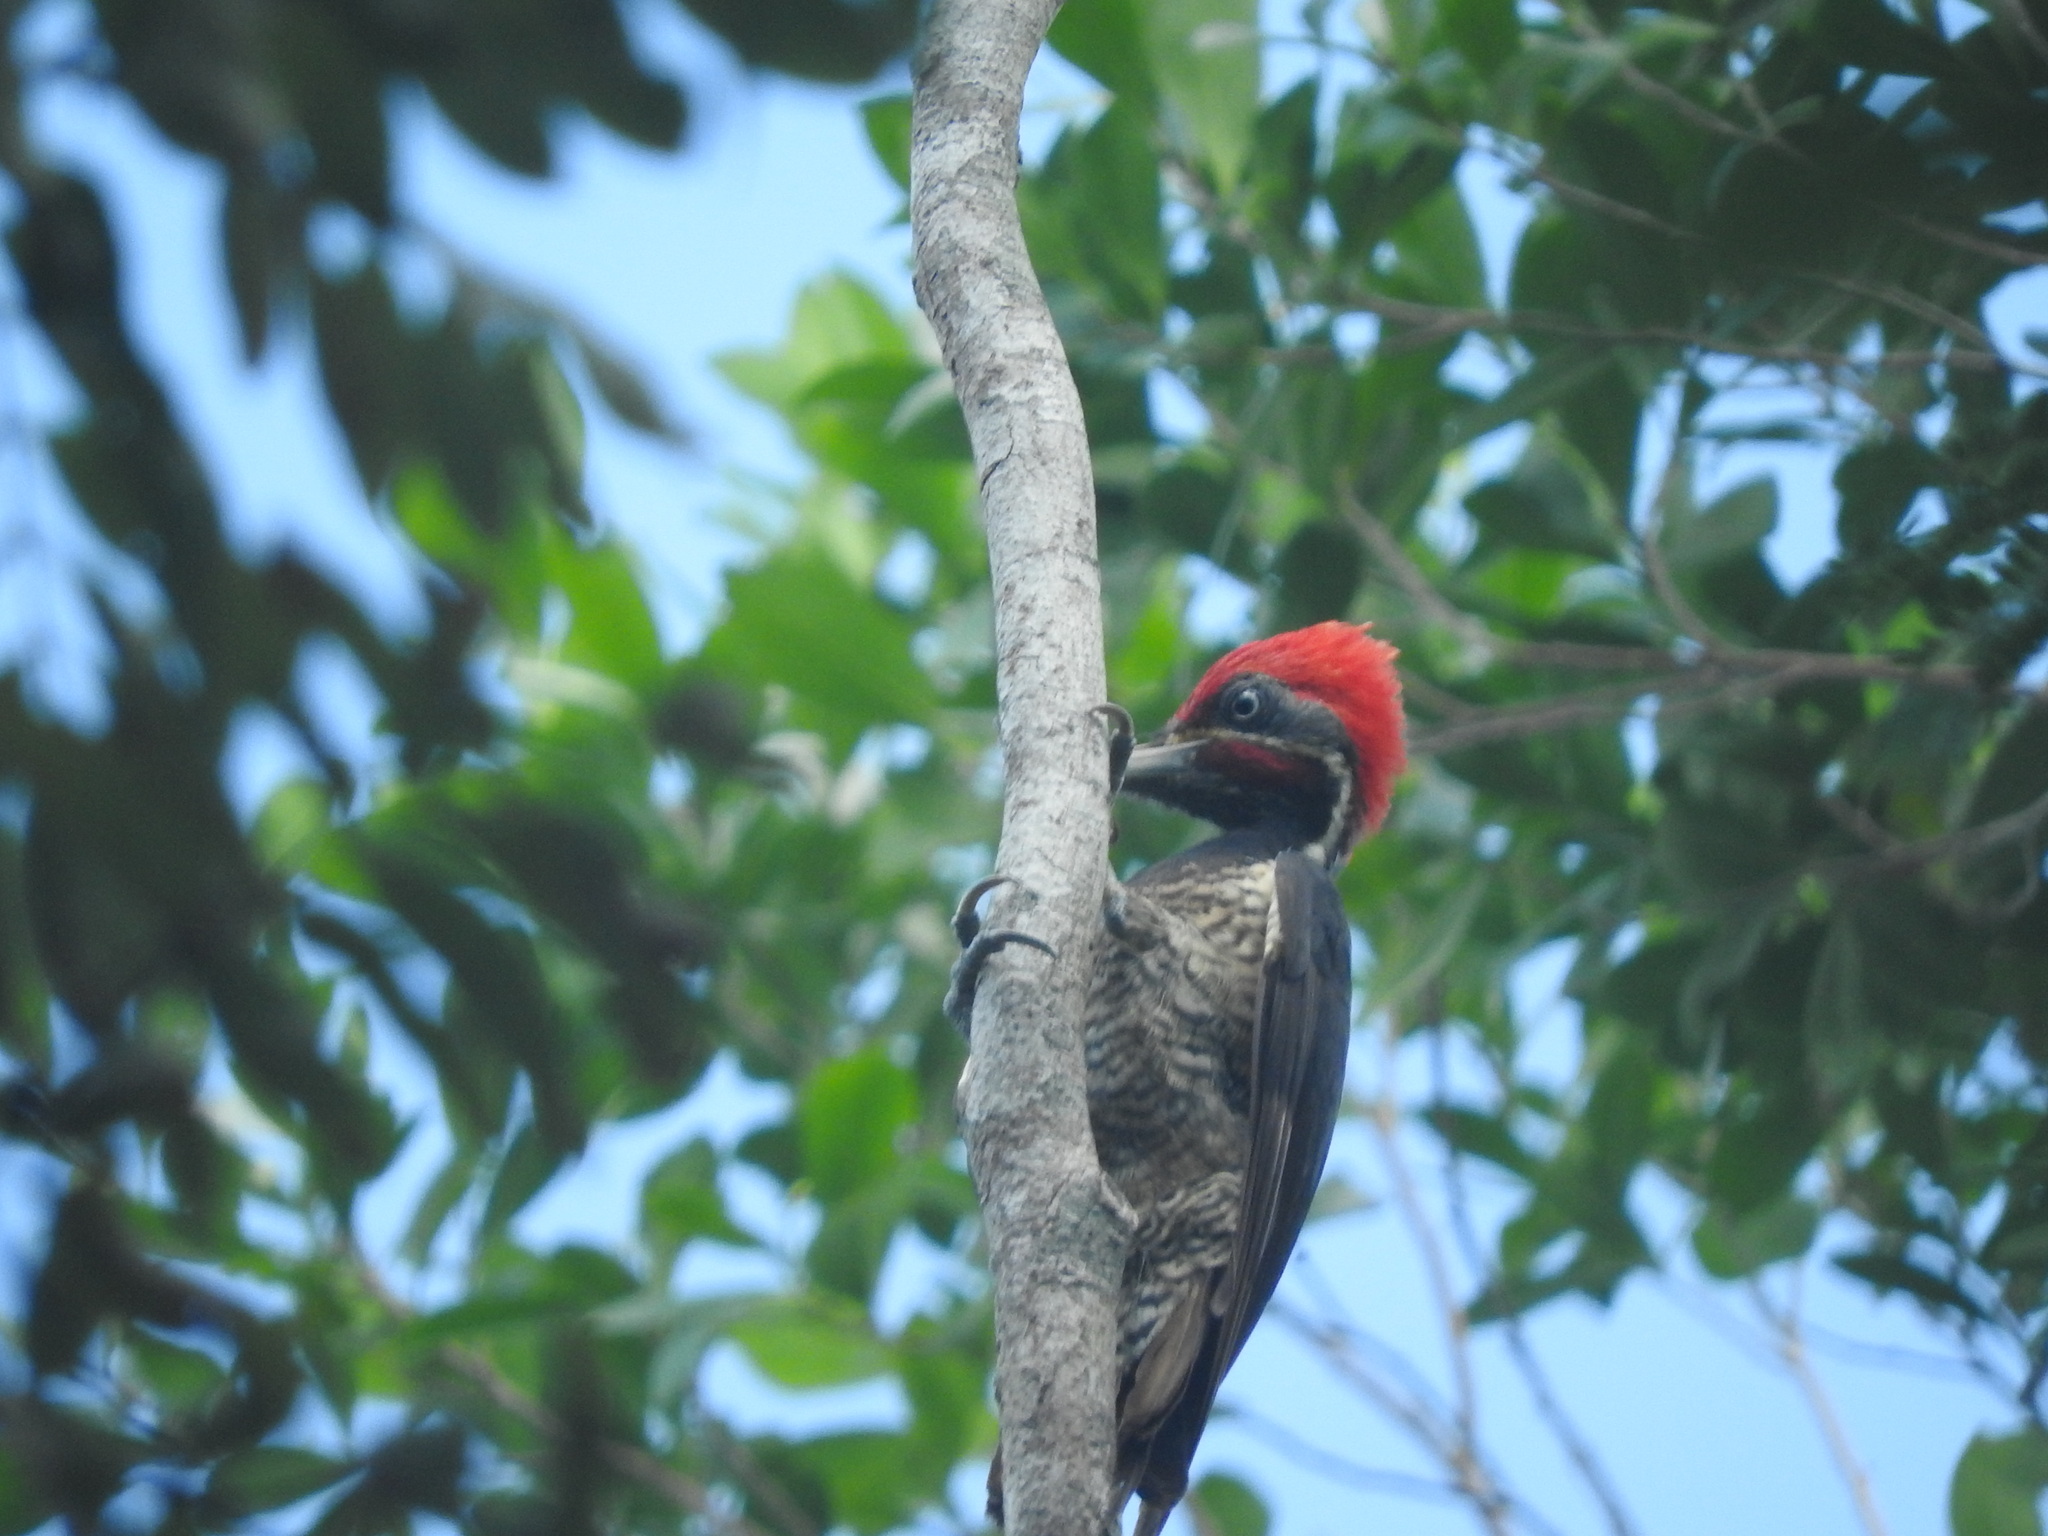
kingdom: Animalia
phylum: Chordata
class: Aves
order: Piciformes
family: Picidae
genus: Dryocopus
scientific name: Dryocopus lineatus
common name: Lineated woodpecker
